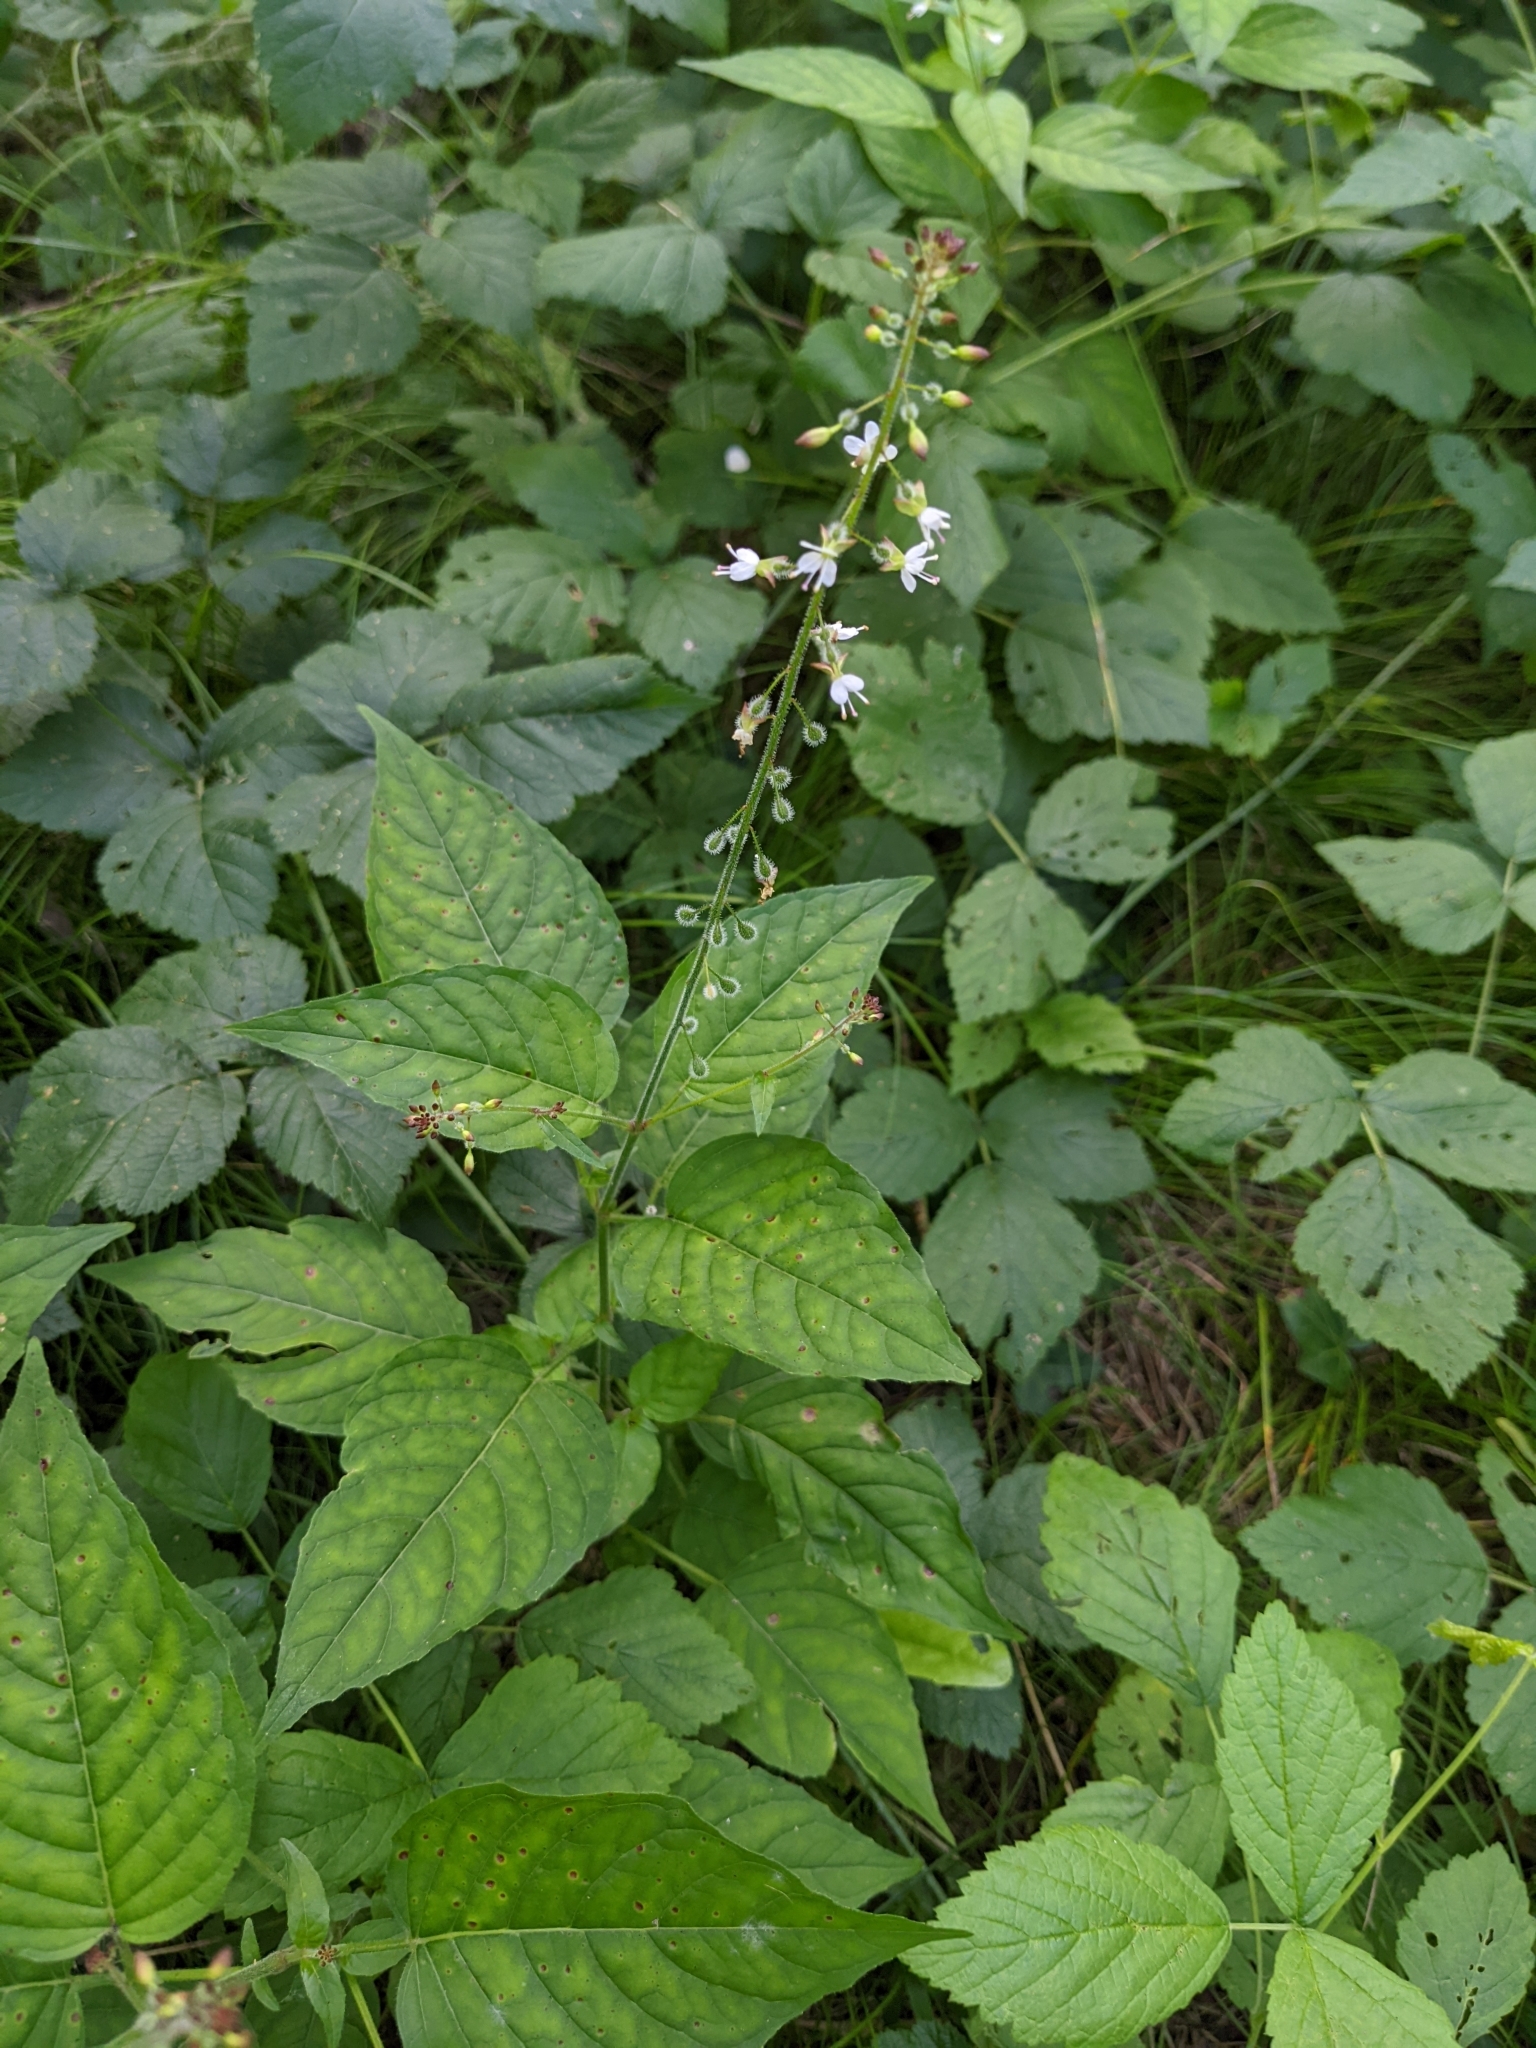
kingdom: Plantae
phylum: Tracheophyta
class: Magnoliopsida
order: Myrtales
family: Onagraceae
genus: Circaea
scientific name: Circaea lutetiana
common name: Enchanter's-nightshade
